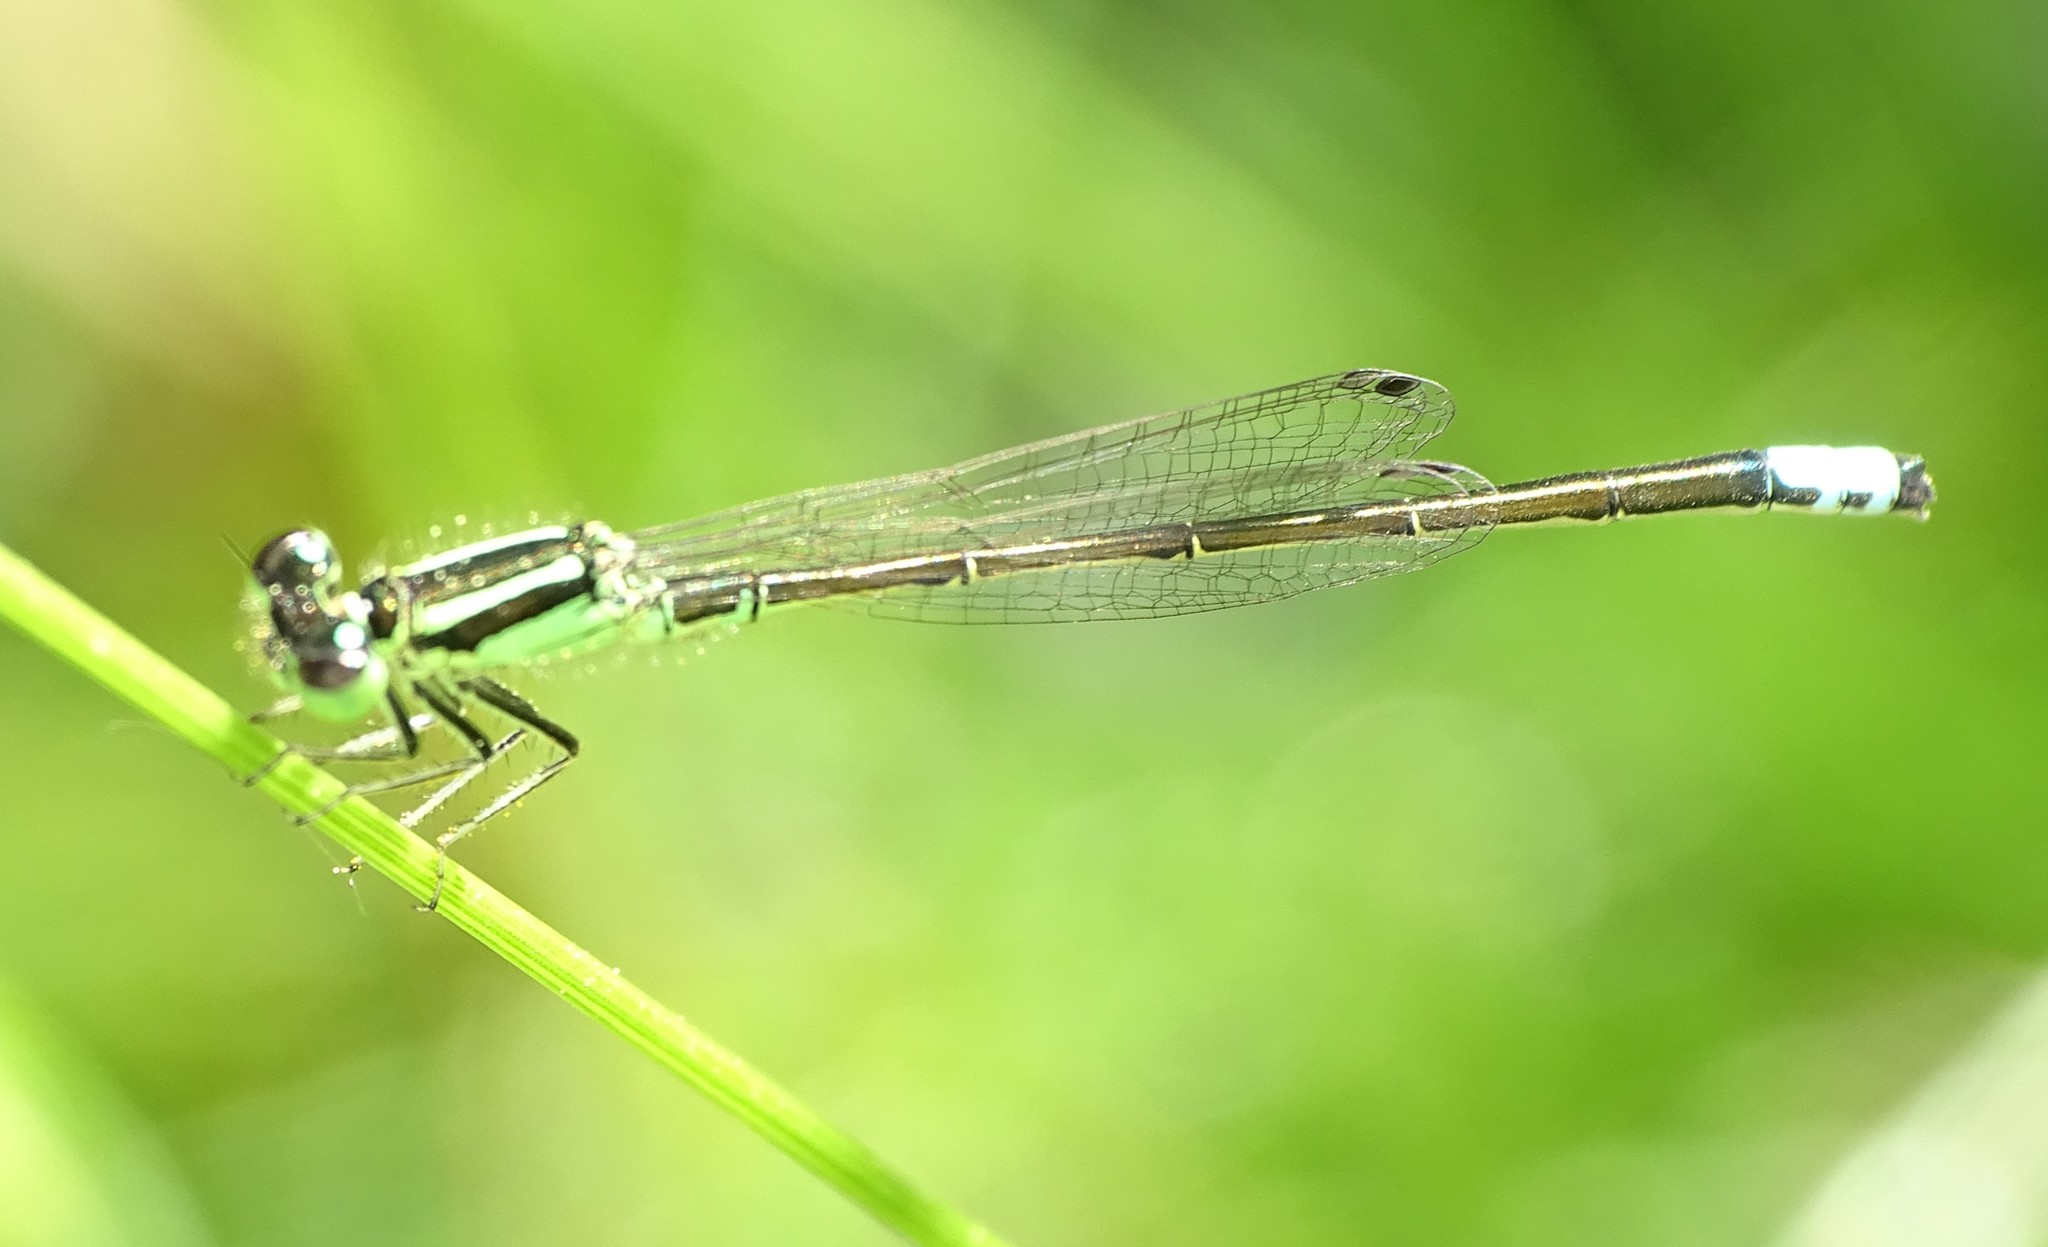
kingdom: Animalia
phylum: Arthropoda
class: Insecta
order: Odonata
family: Coenagrionidae
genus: Ischnura
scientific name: Ischnura verticalis
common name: Eastern forktail
